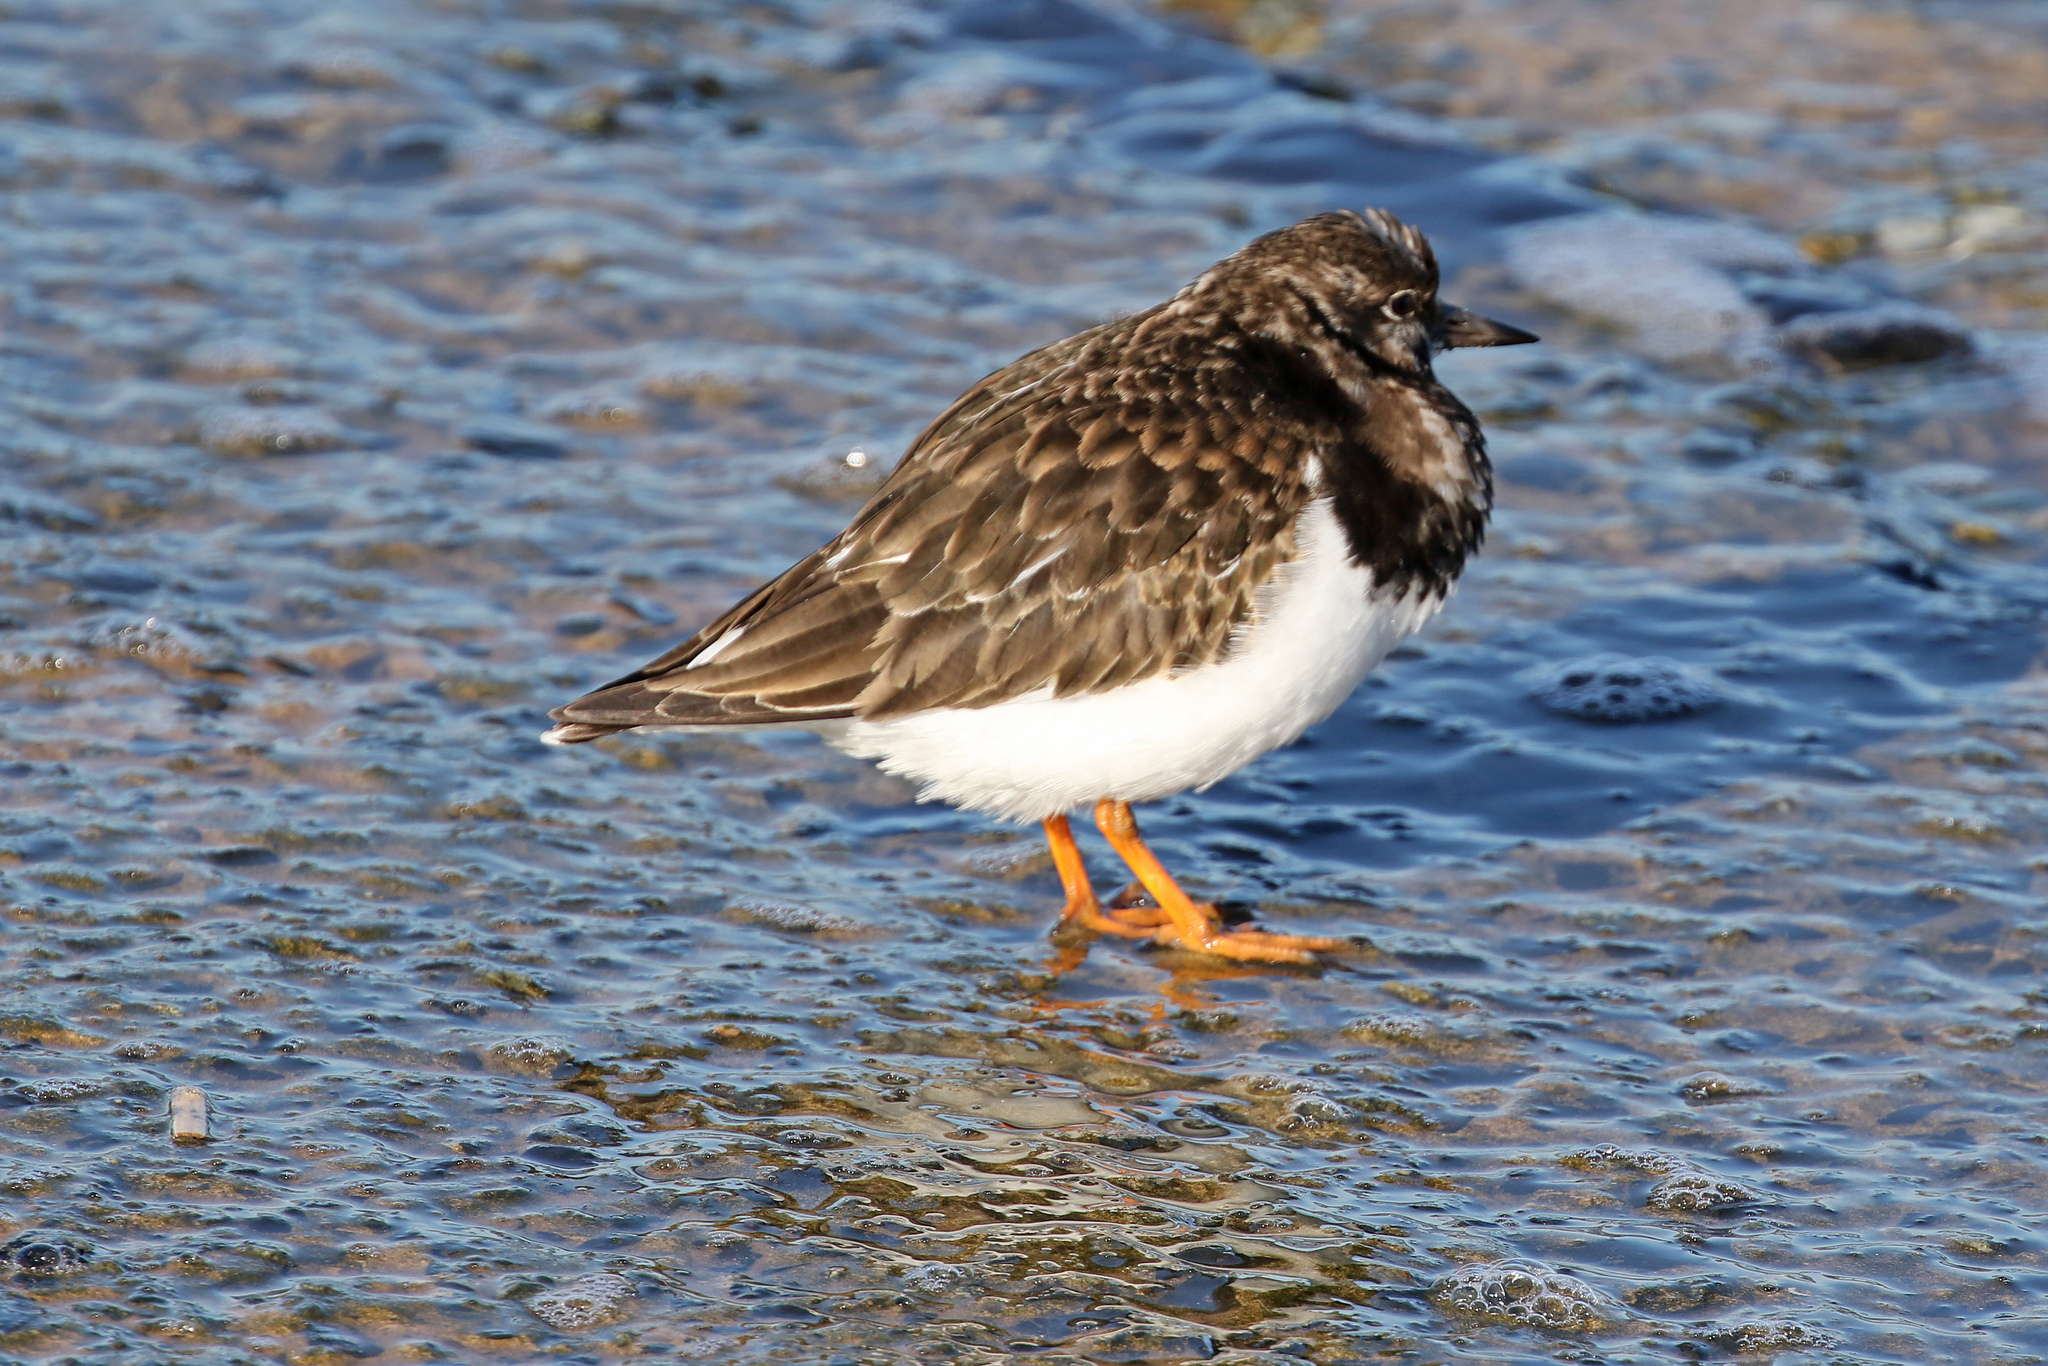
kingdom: Animalia
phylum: Chordata
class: Aves
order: Charadriiformes
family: Scolopacidae
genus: Arenaria
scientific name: Arenaria interpres
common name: Ruddy turnstone
